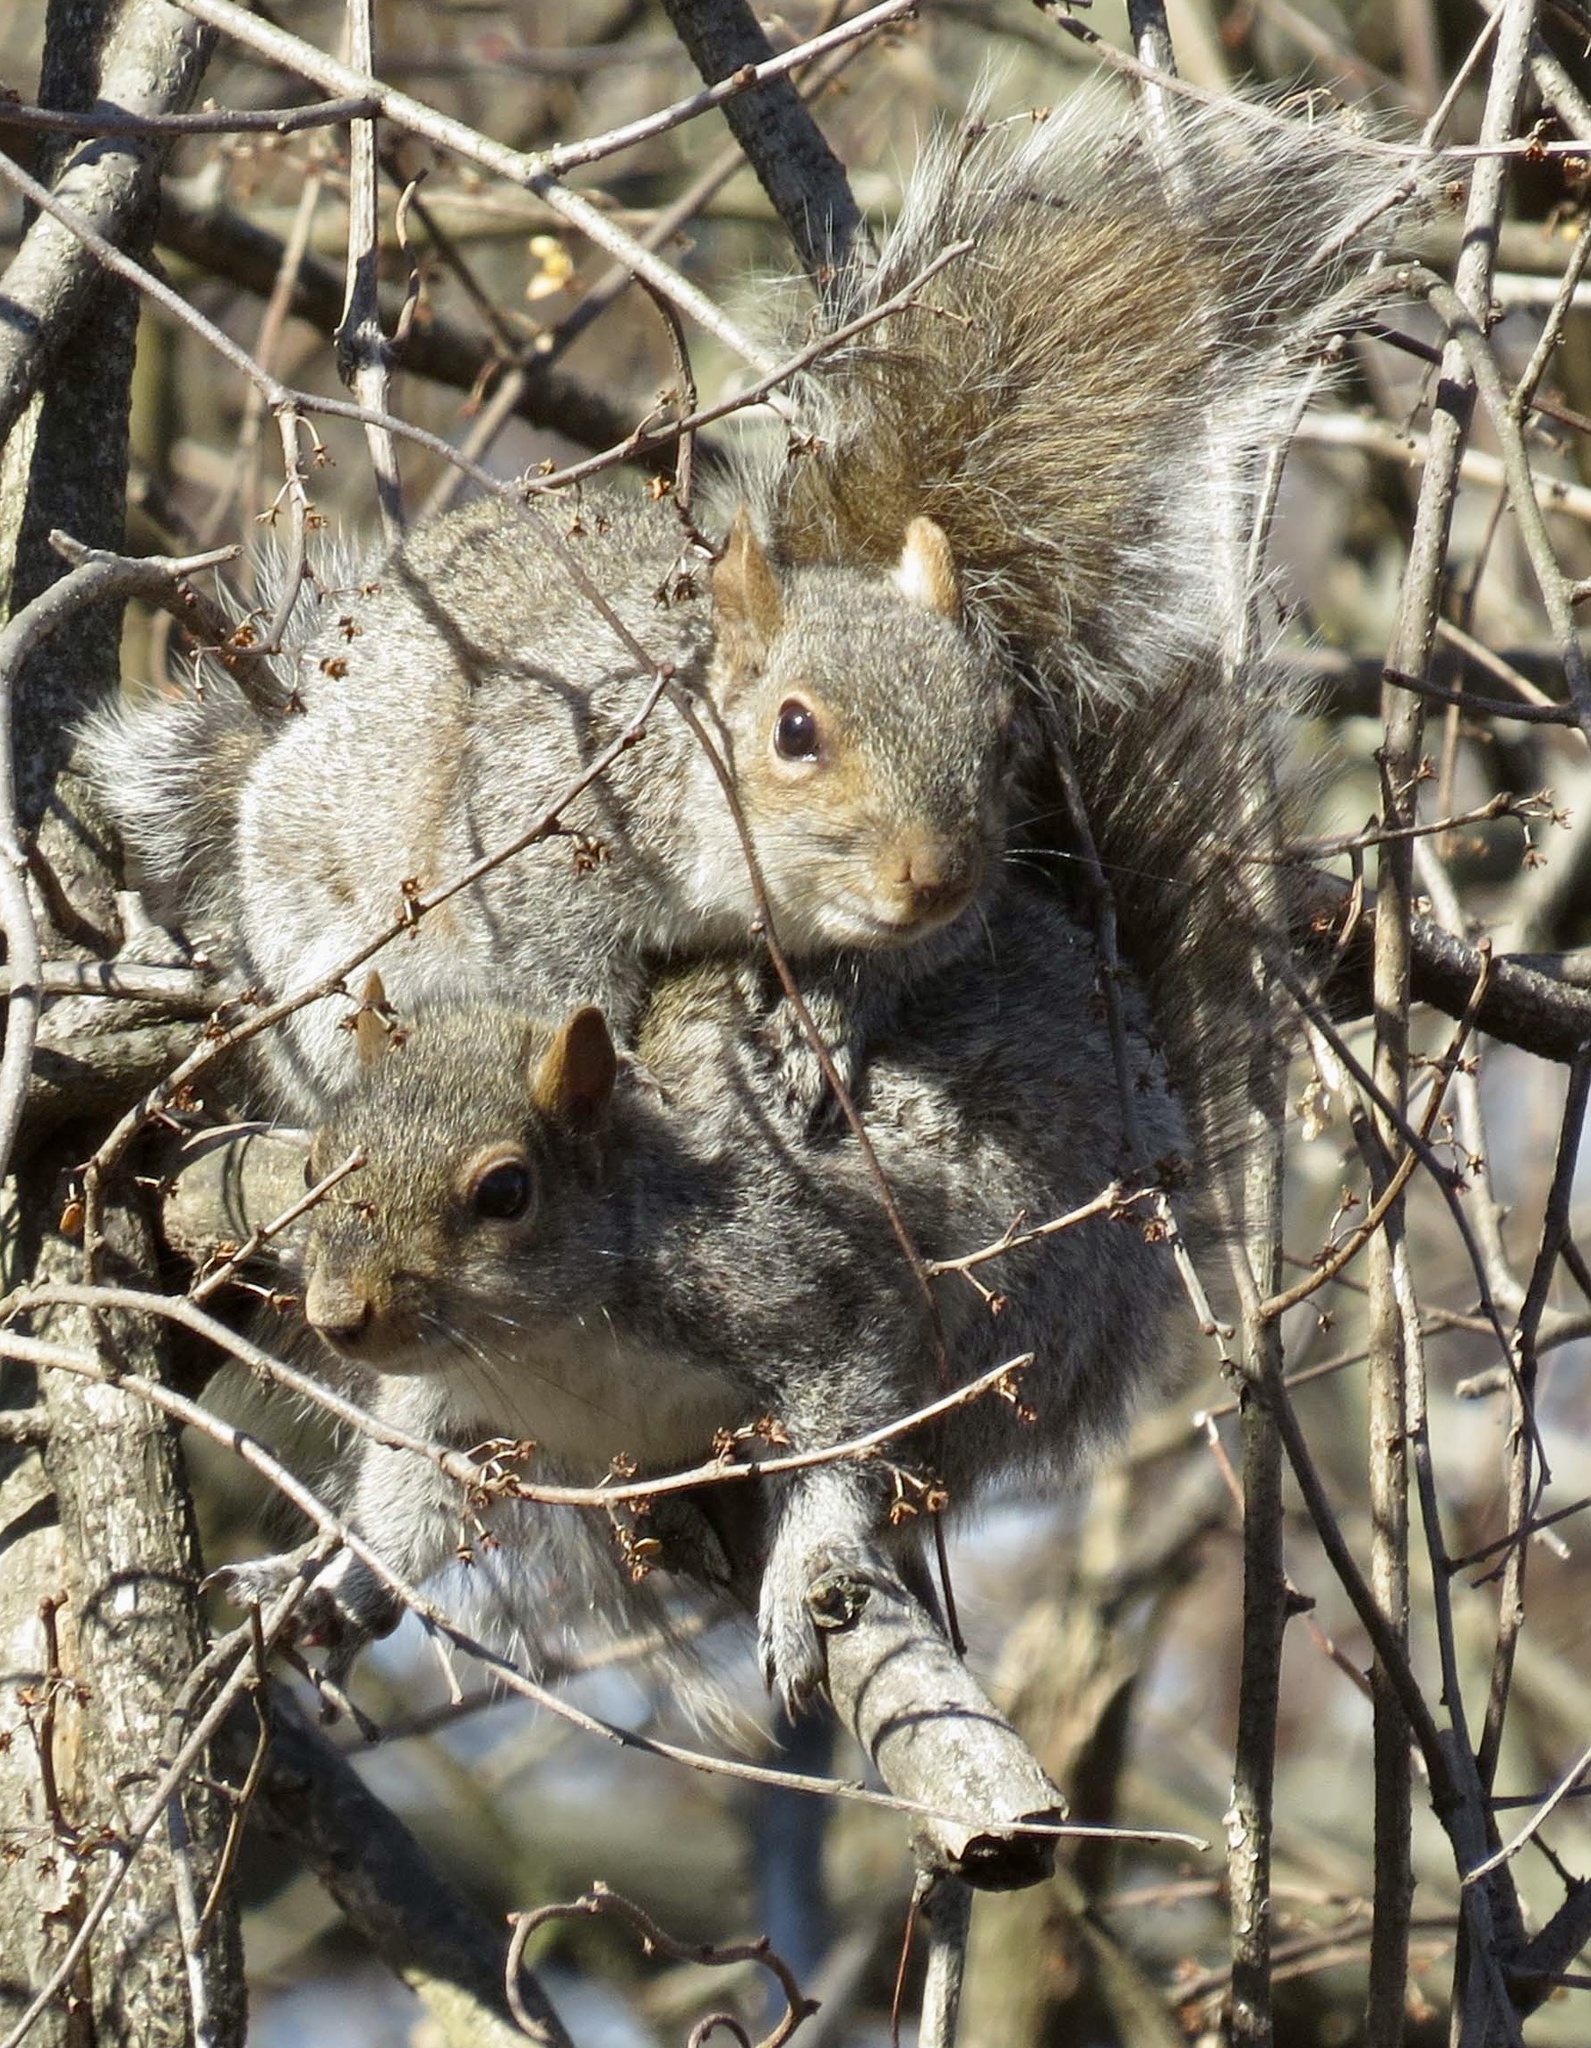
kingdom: Animalia
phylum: Chordata
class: Mammalia
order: Rodentia
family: Sciuridae
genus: Sciurus
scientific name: Sciurus carolinensis
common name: Eastern gray squirrel
